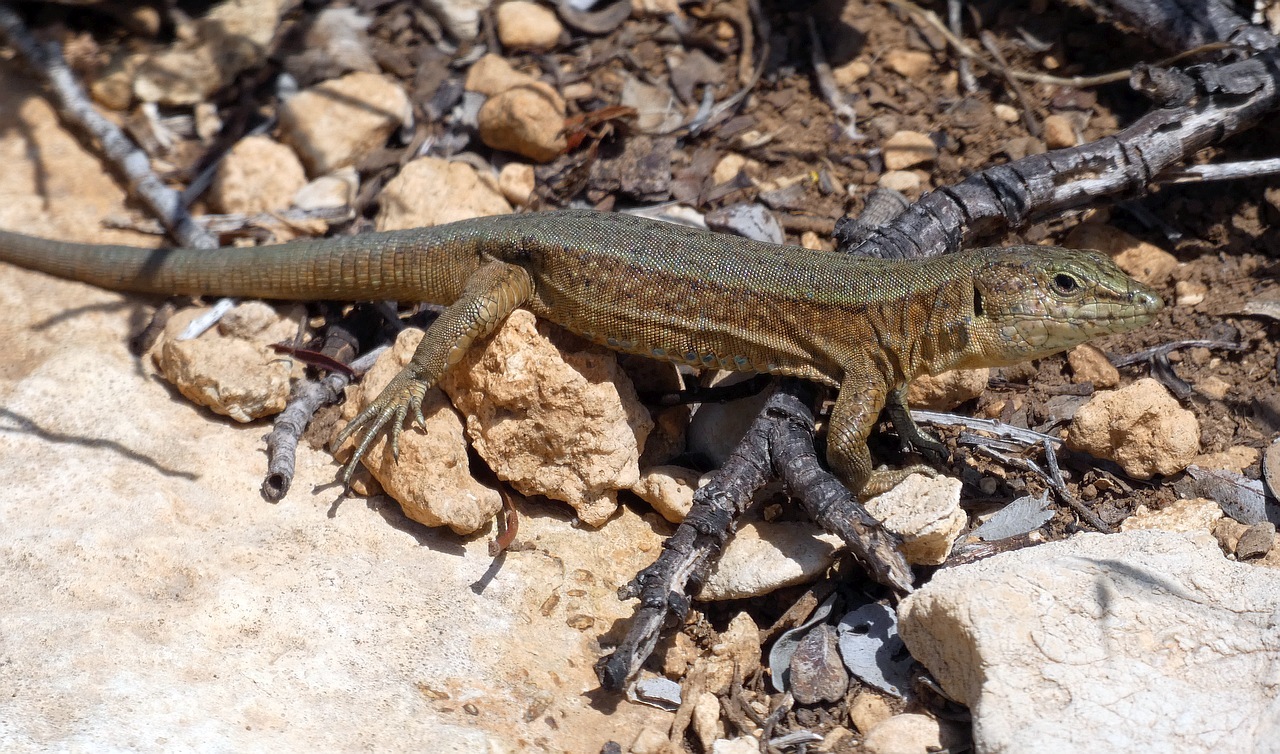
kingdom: Animalia
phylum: Chordata
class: Squamata
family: Lacertidae
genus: Podarcis
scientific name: Podarcis lilfordi
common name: Belearic lizard
